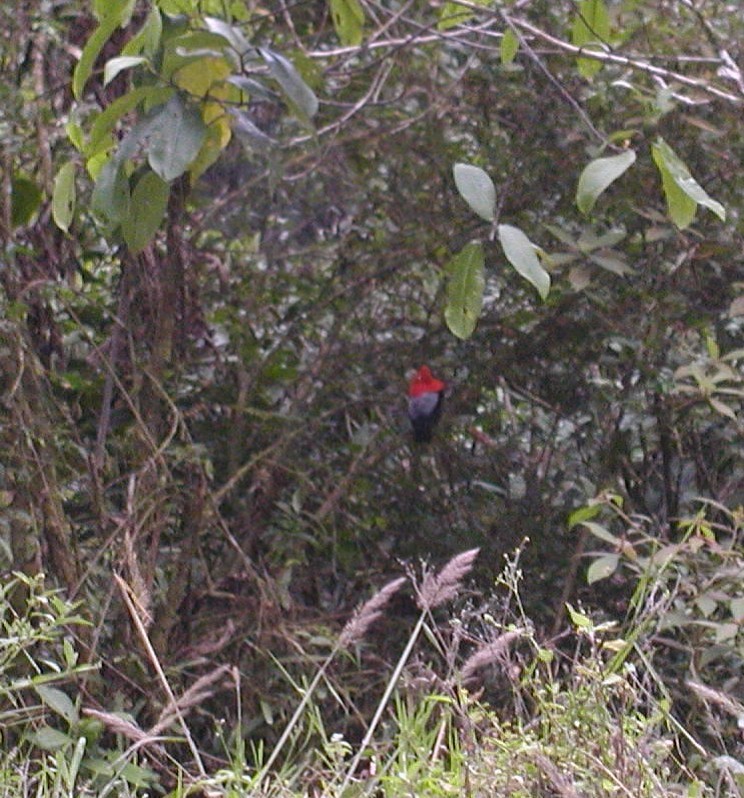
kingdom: Animalia
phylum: Chordata
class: Aves
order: Passeriformes
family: Cotingidae
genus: Rupicola
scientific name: Rupicola peruvianus
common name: Andean cock-of-the-rock
